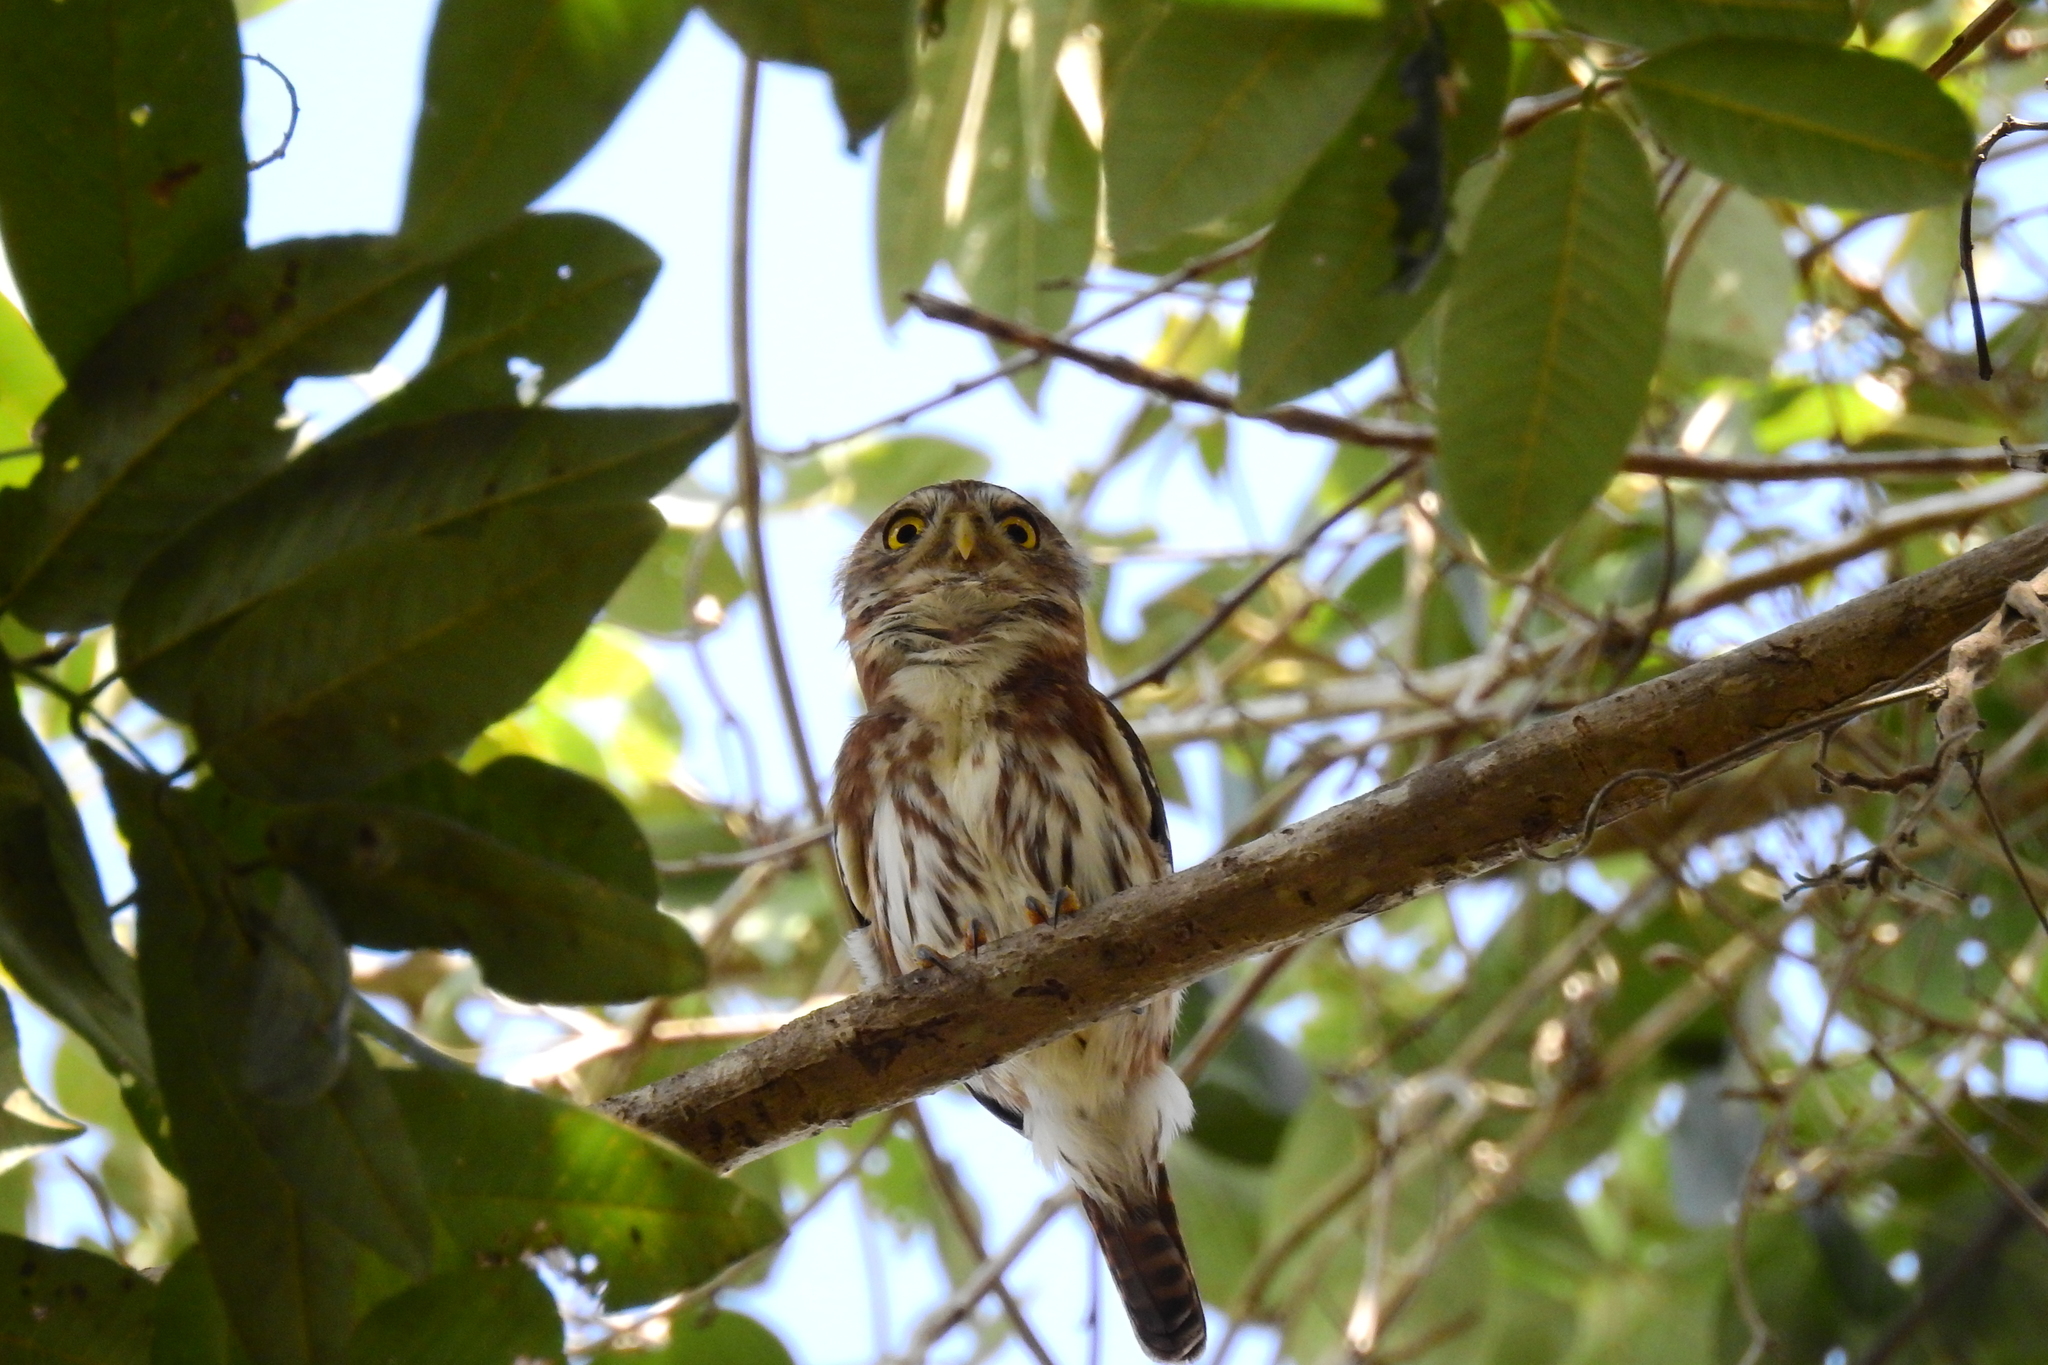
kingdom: Animalia
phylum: Chordata
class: Aves
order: Strigiformes
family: Strigidae
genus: Glaucidium
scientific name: Glaucidium brasilianum
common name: Ferruginous pygmy-owl
